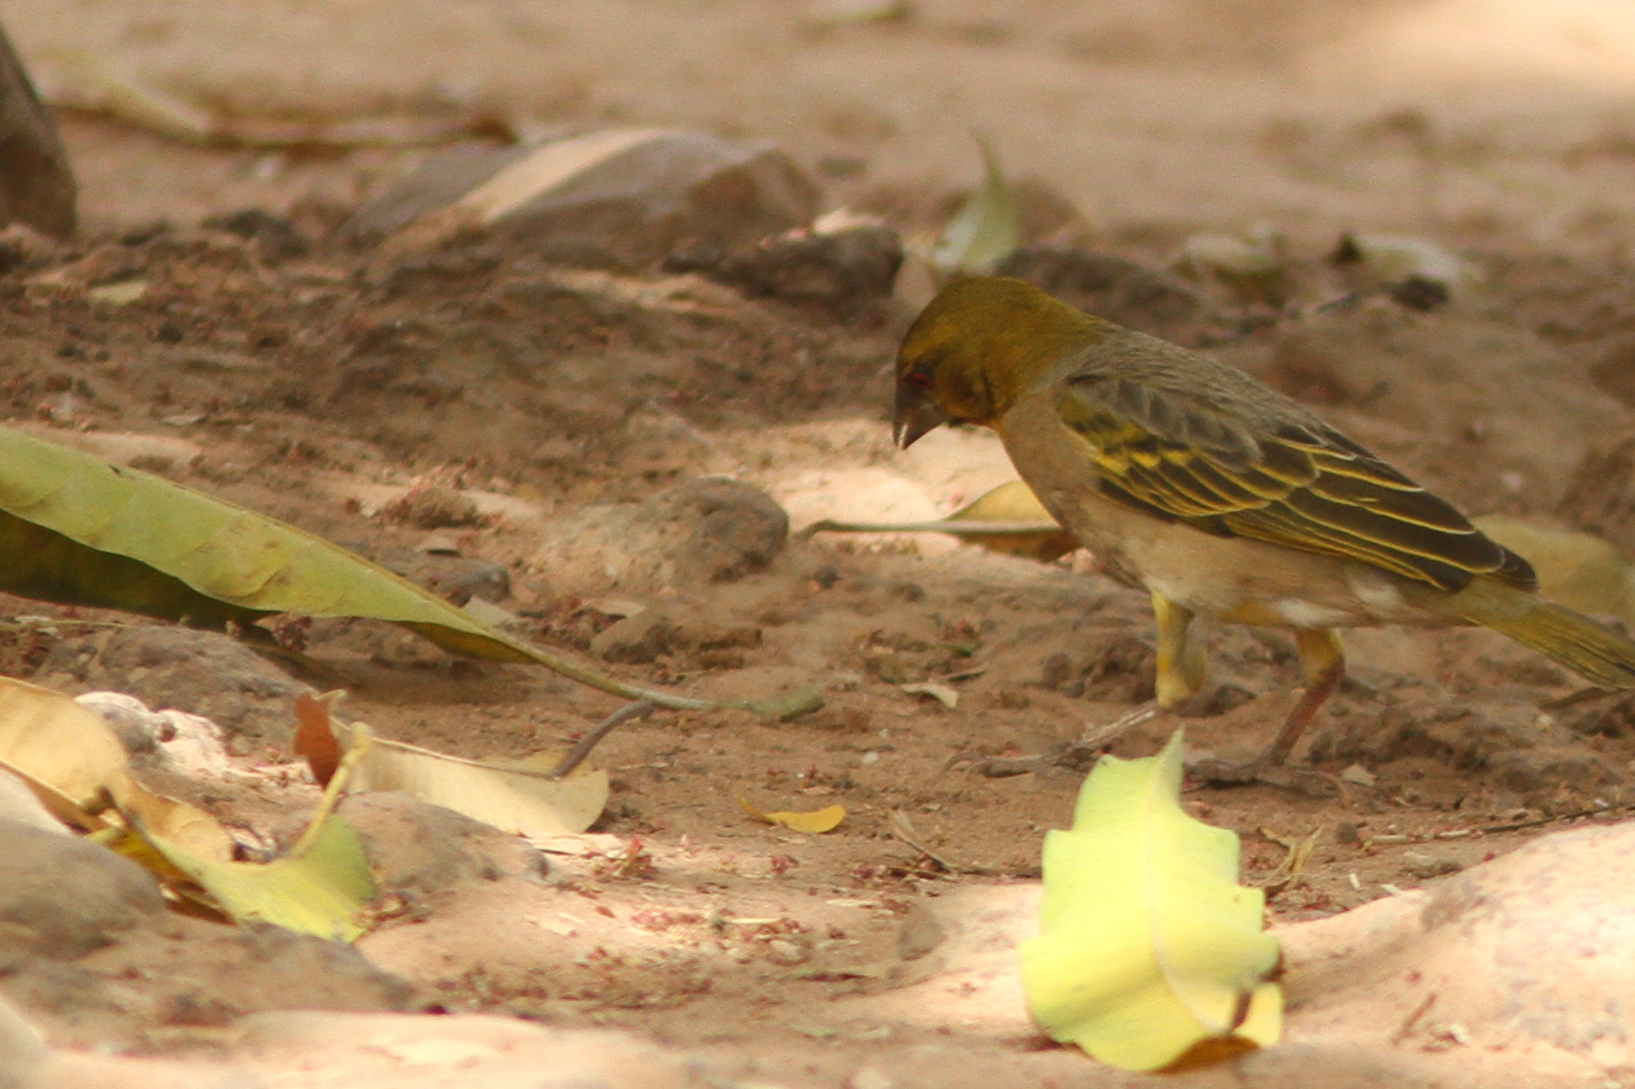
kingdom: Animalia
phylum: Chordata
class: Aves
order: Passeriformes
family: Ploceidae
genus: Ploceus
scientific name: Ploceus cucullatus
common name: Village weaver
